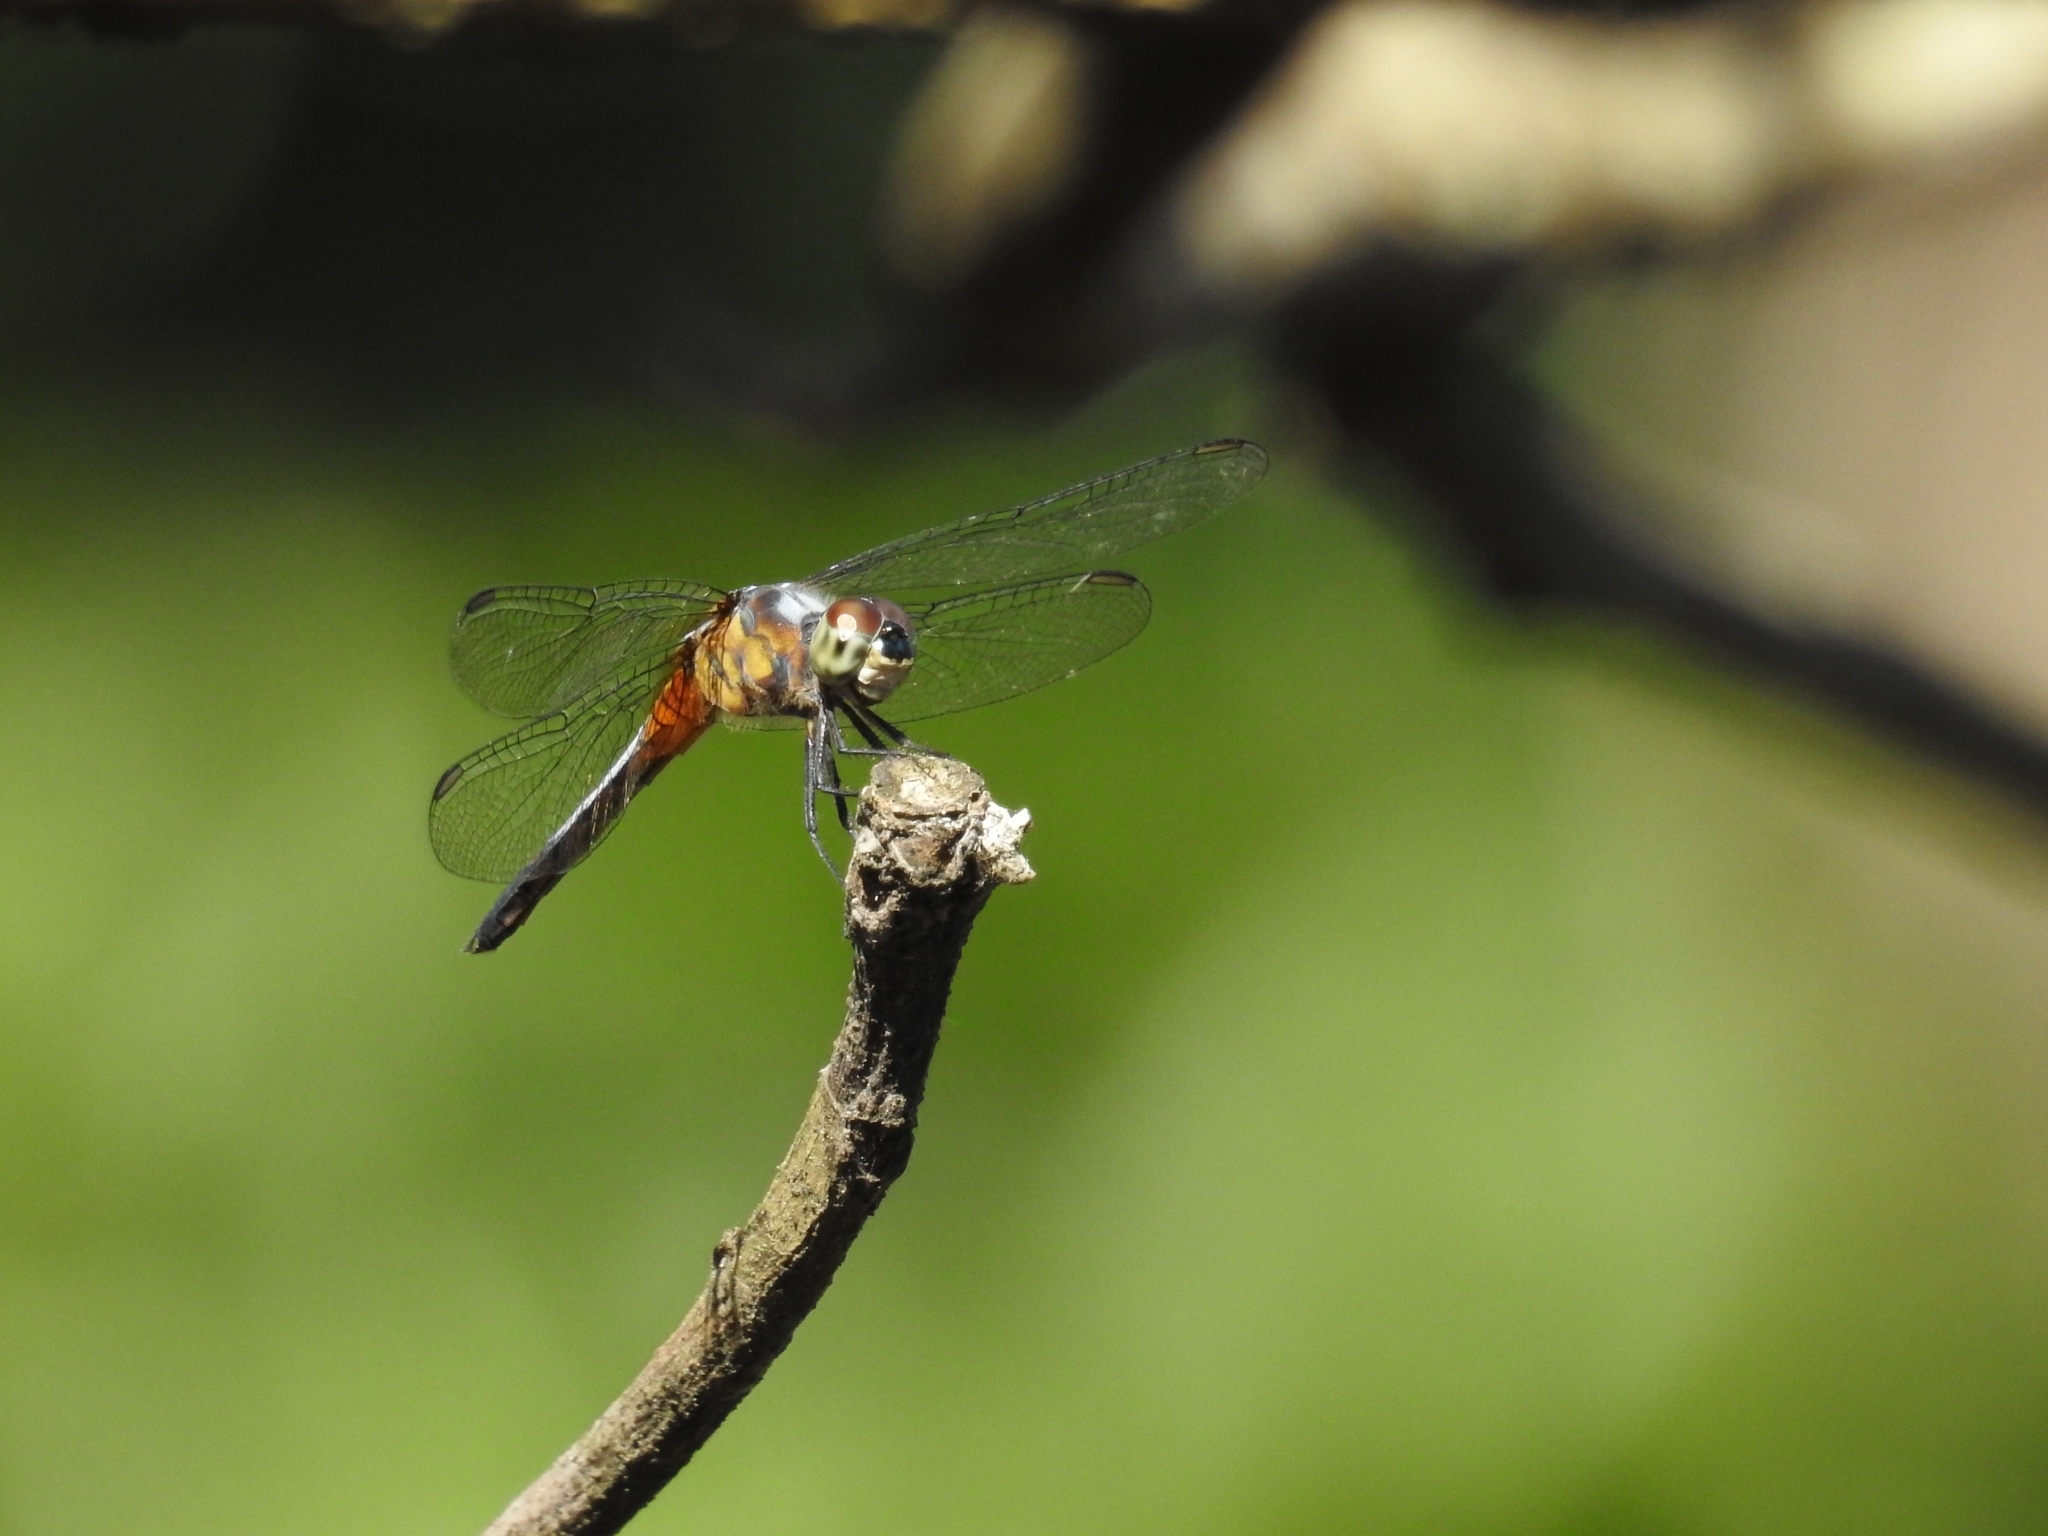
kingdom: Animalia
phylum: Arthropoda
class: Insecta
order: Odonata
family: Libellulidae
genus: Brachydiplax
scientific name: Brachydiplax chalybea
